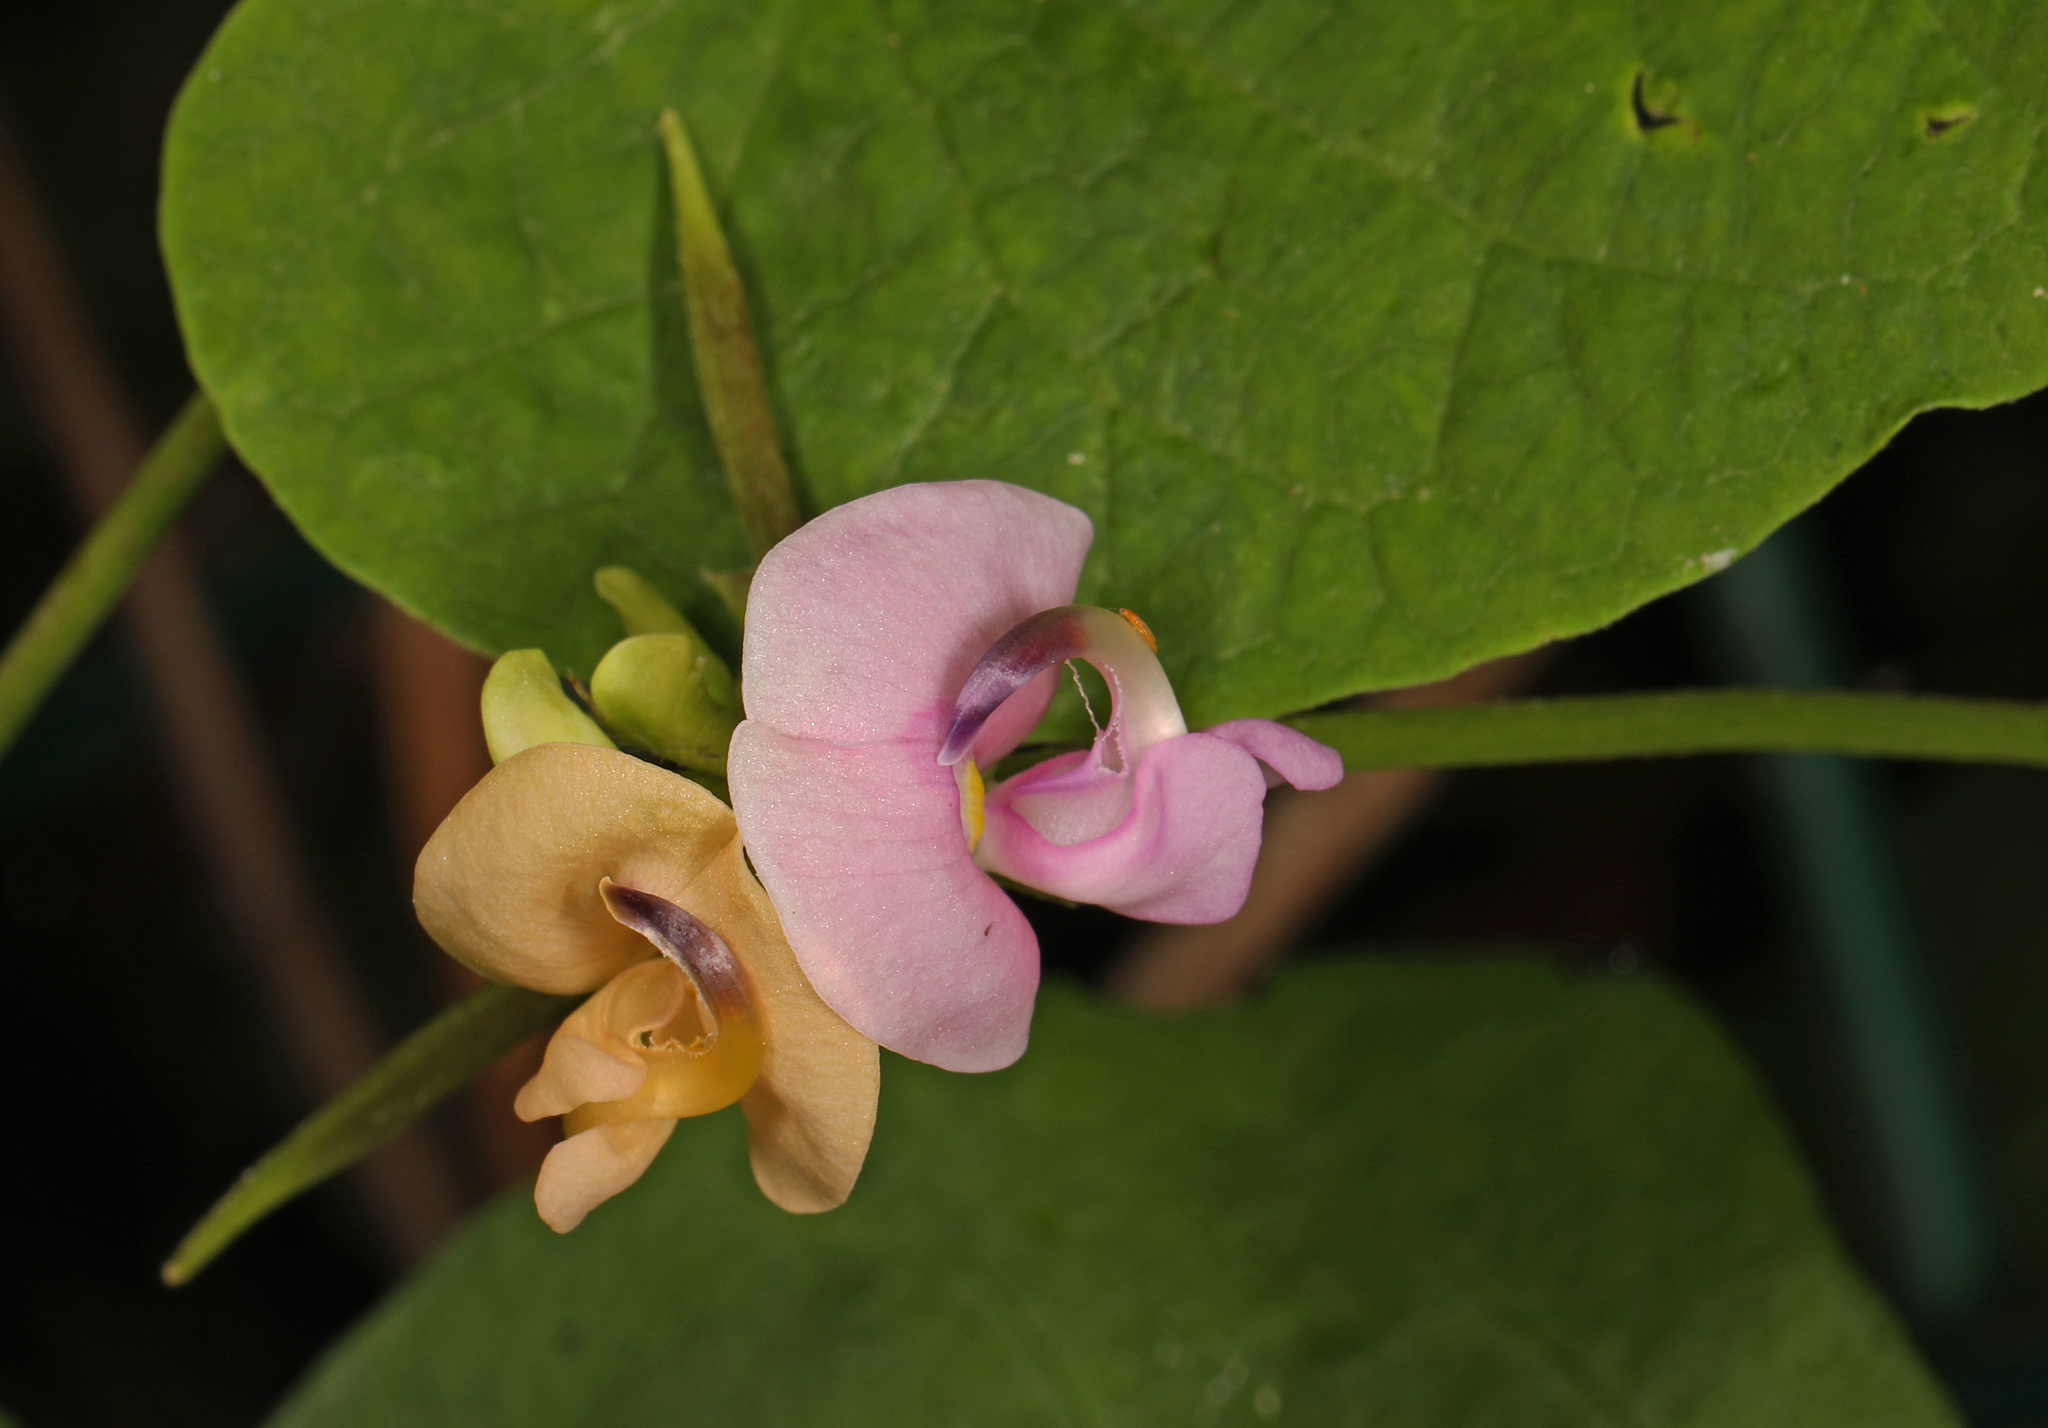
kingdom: Plantae
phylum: Tracheophyta
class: Magnoliopsida
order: Fabales
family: Fabaceae
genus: Strophostyles
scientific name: Strophostyles helvola
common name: Trailing wild bean
